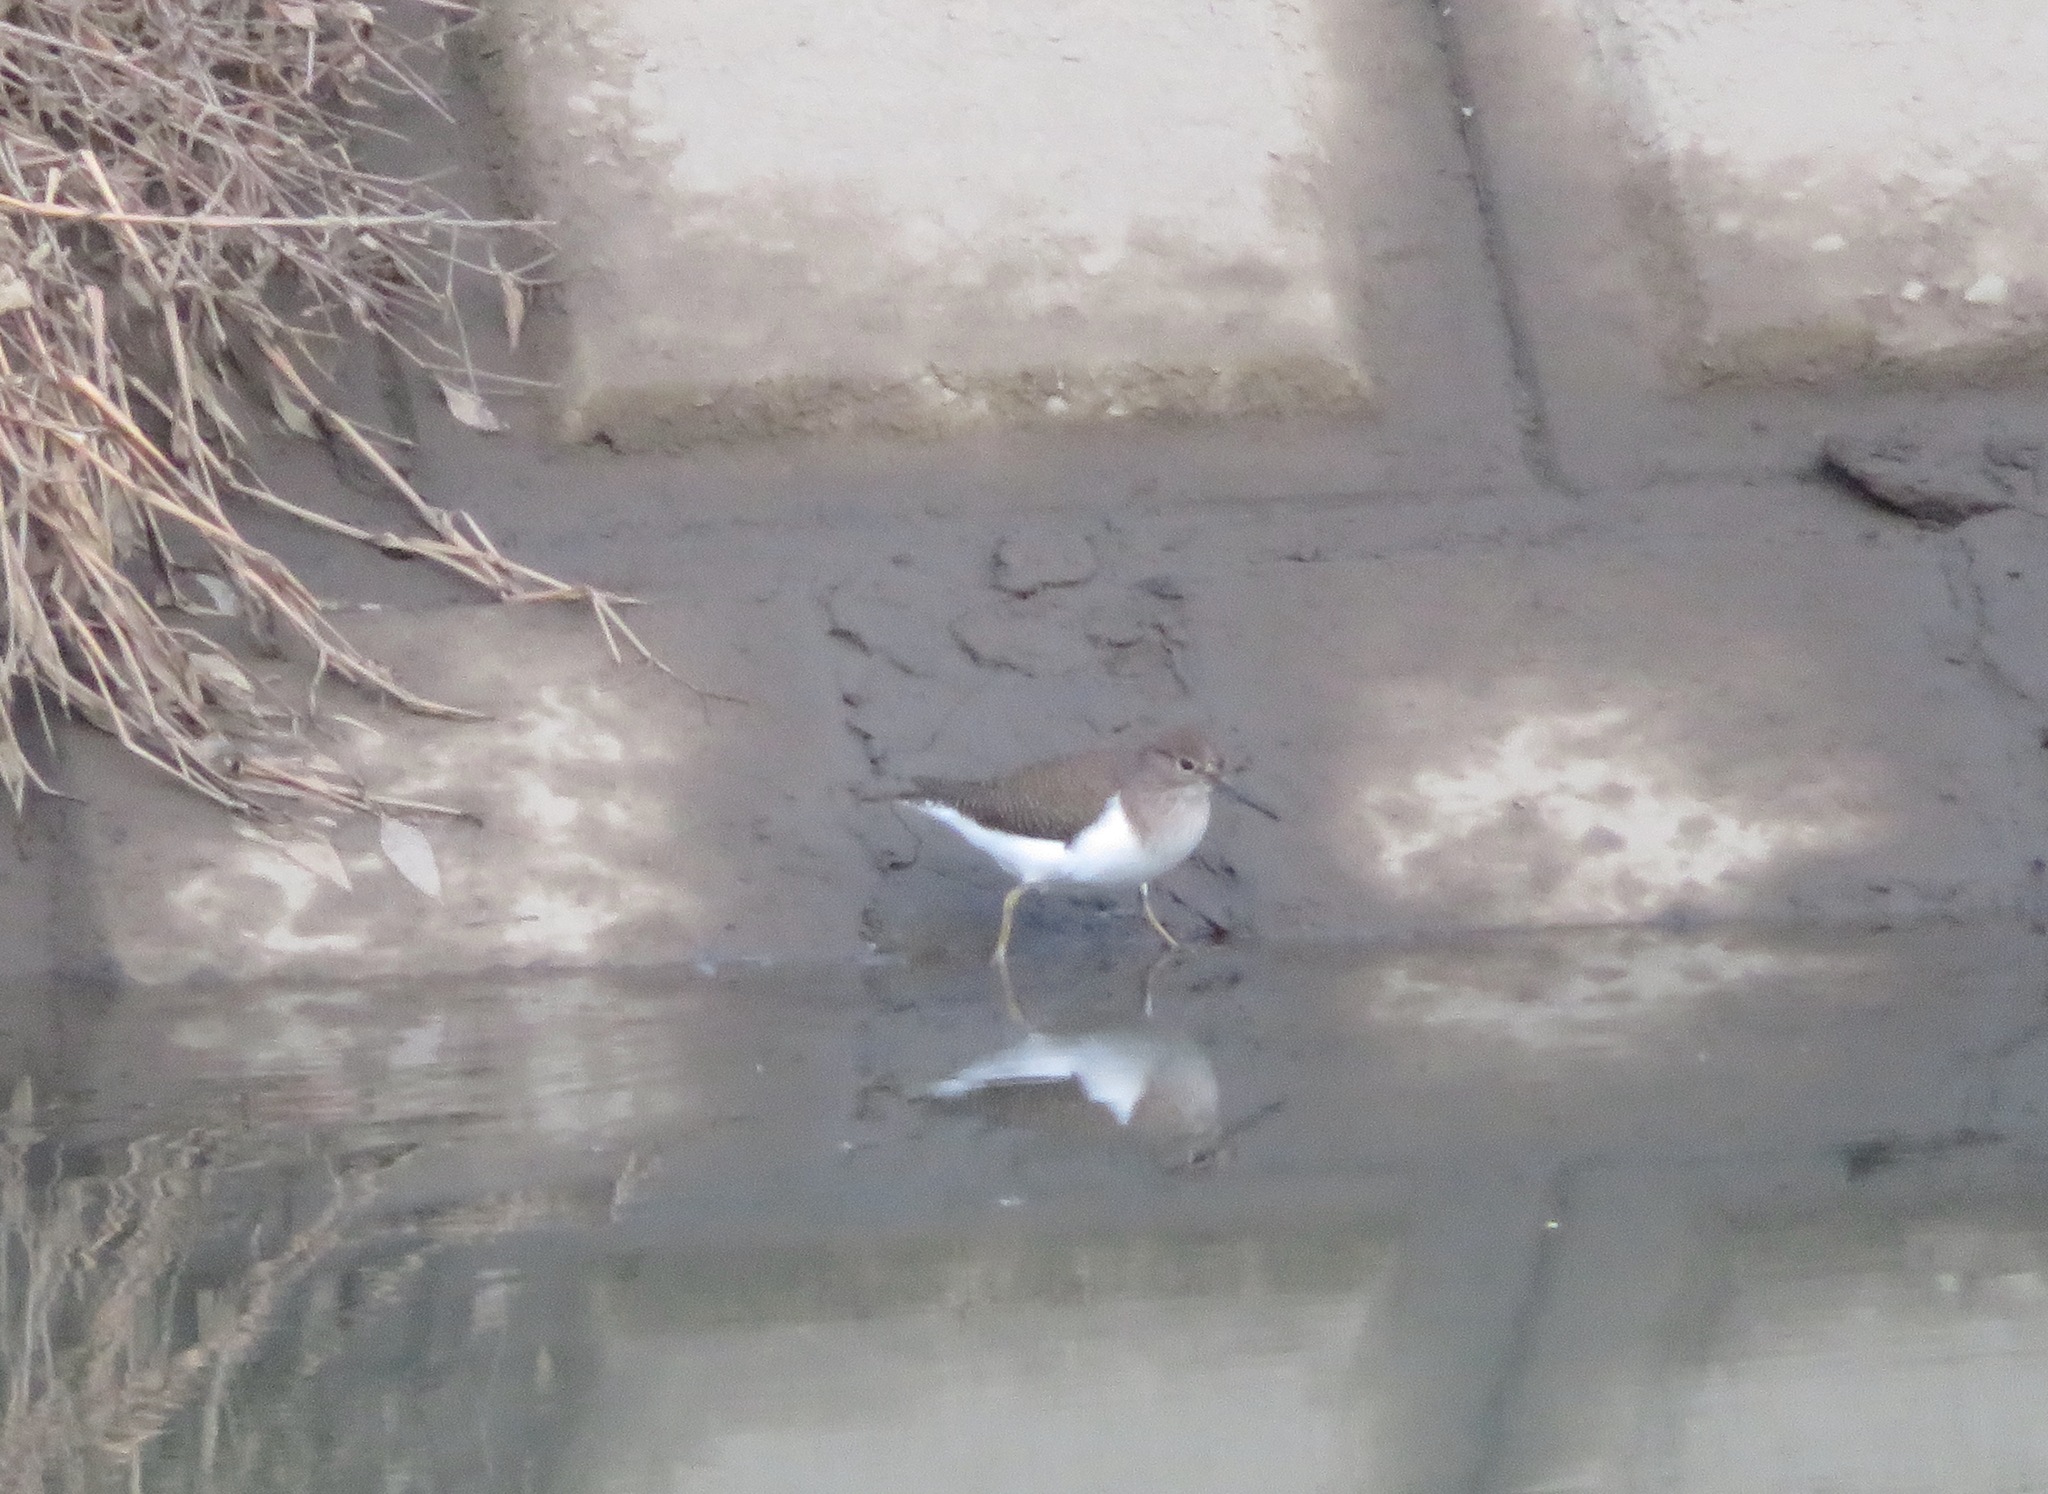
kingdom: Animalia
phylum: Chordata
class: Aves
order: Charadriiformes
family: Scolopacidae
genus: Actitis
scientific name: Actitis hypoleucos
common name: Common sandpiper
